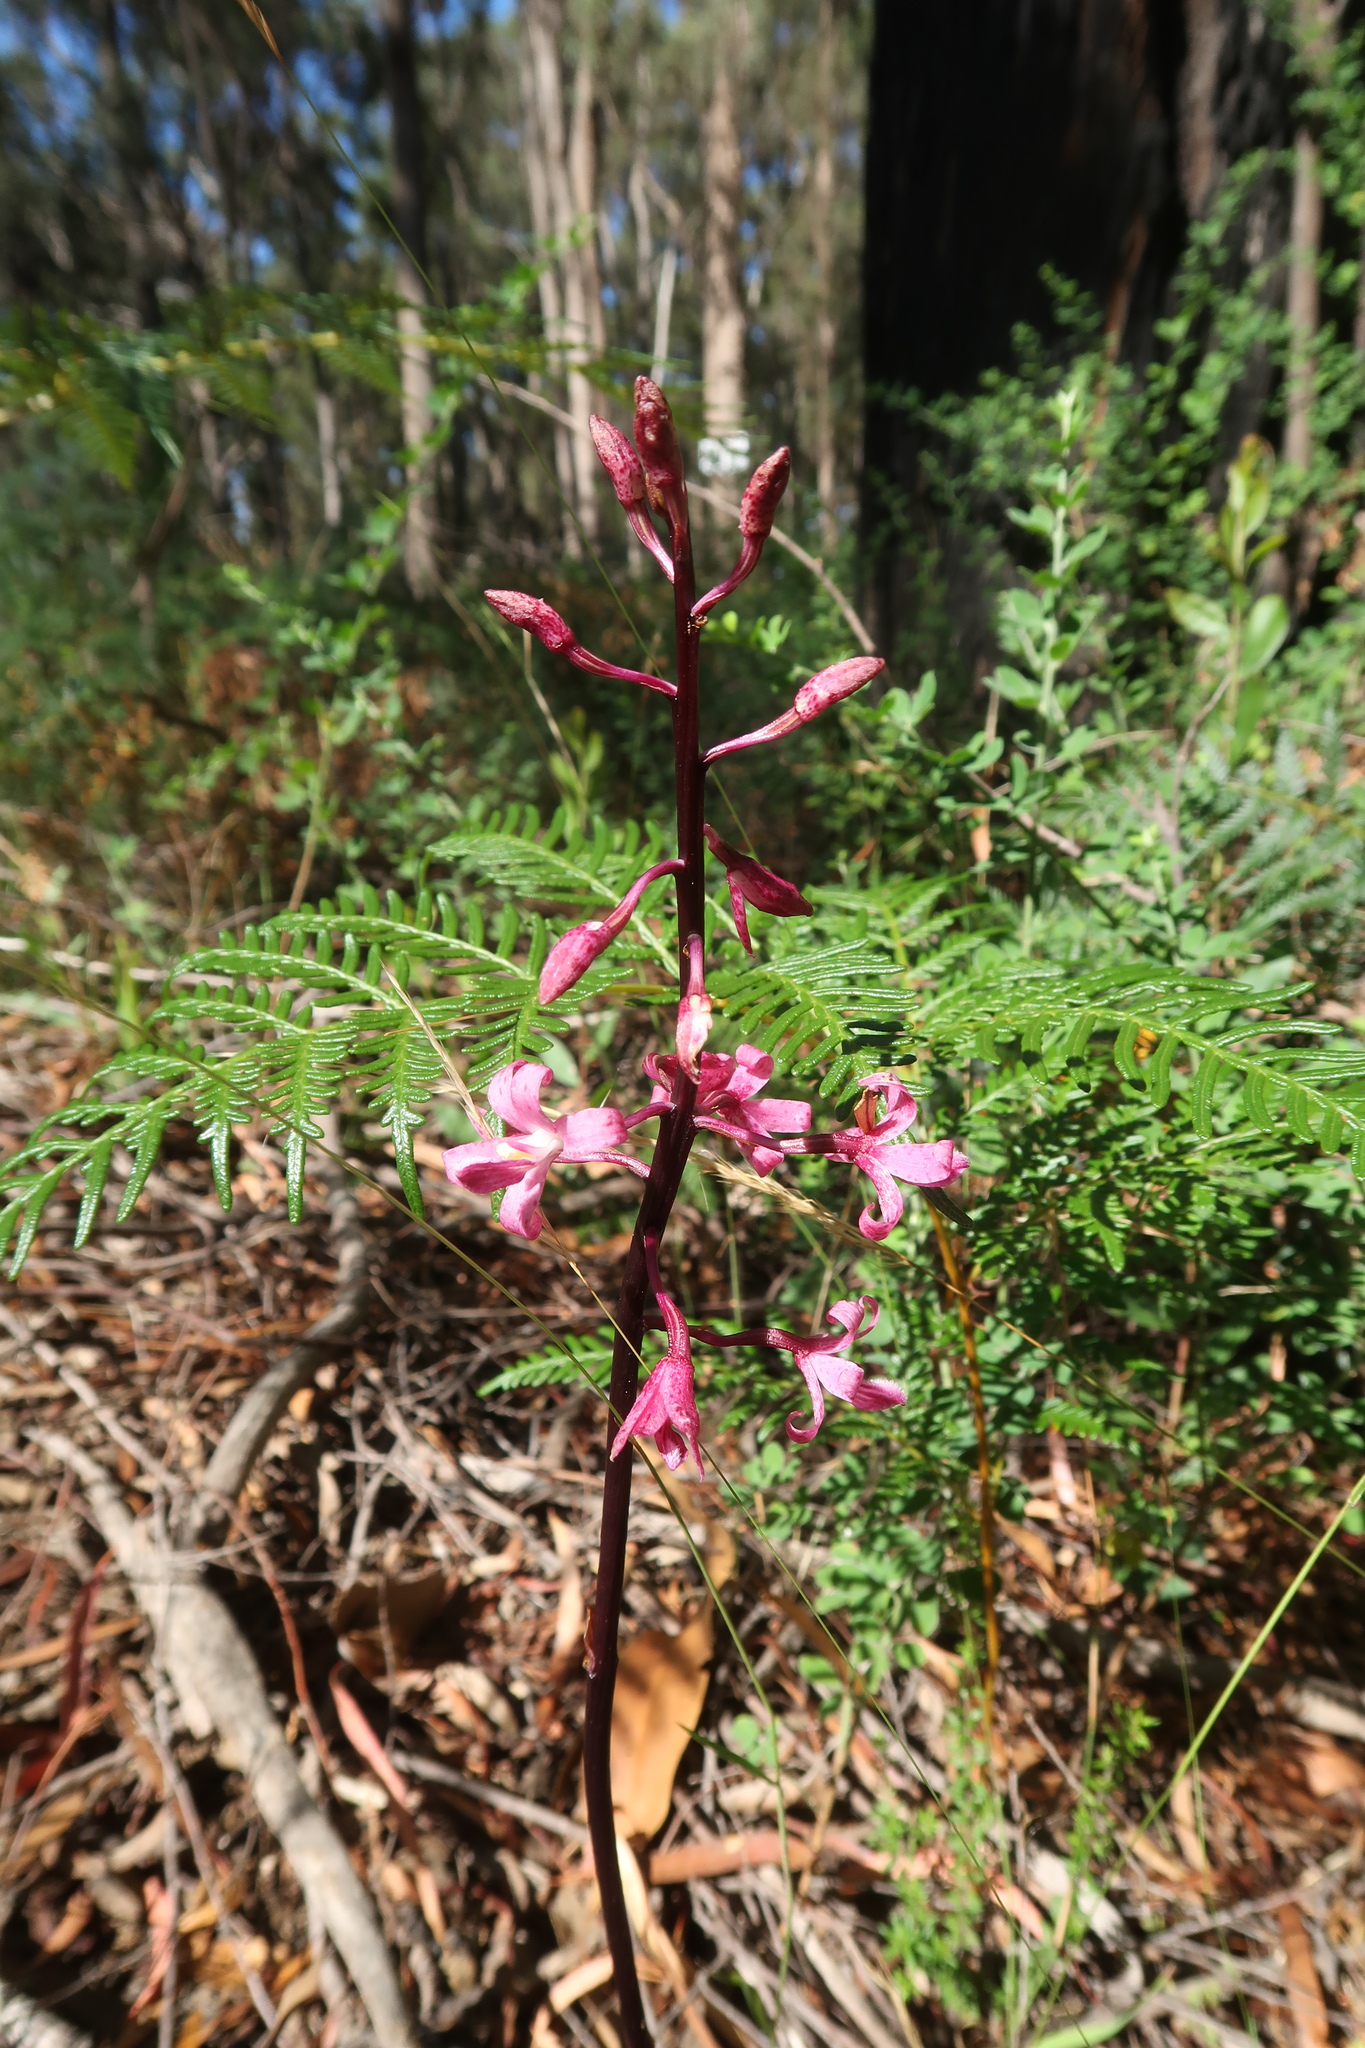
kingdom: Plantae
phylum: Tracheophyta
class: Liliopsida
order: Asparagales
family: Orchidaceae
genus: Dipodium
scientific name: Dipodium roseum
